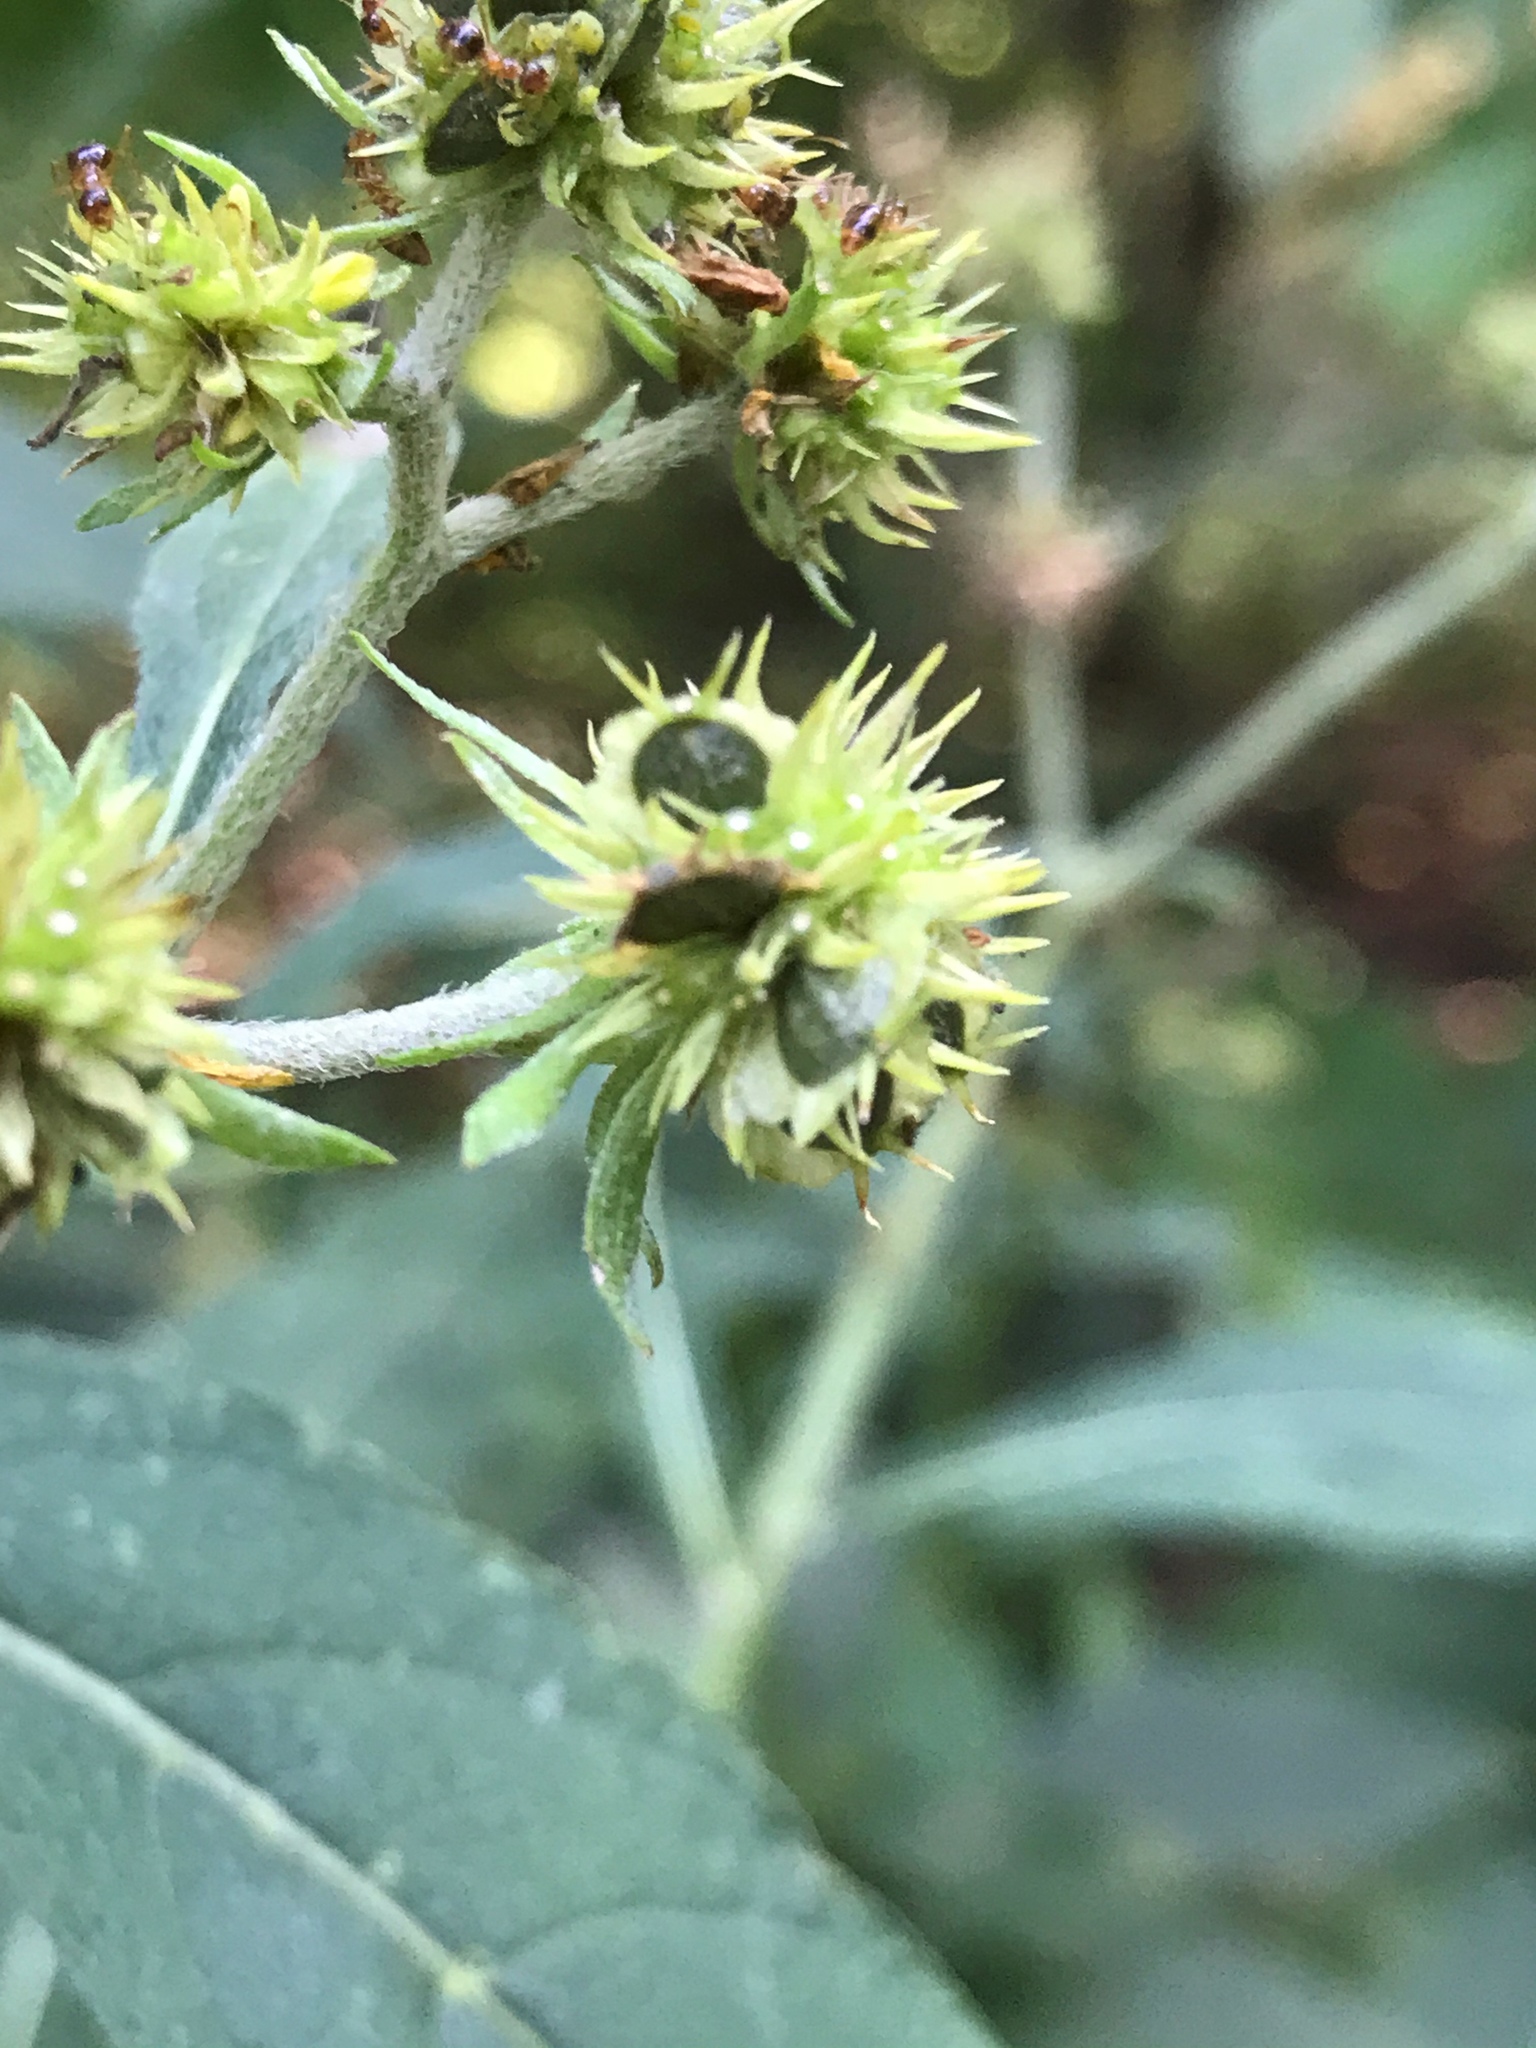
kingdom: Plantae
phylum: Tracheophyta
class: Magnoliopsida
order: Asterales
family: Asteraceae
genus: Verbesina
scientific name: Verbesina alternifolia
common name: Wingstem
